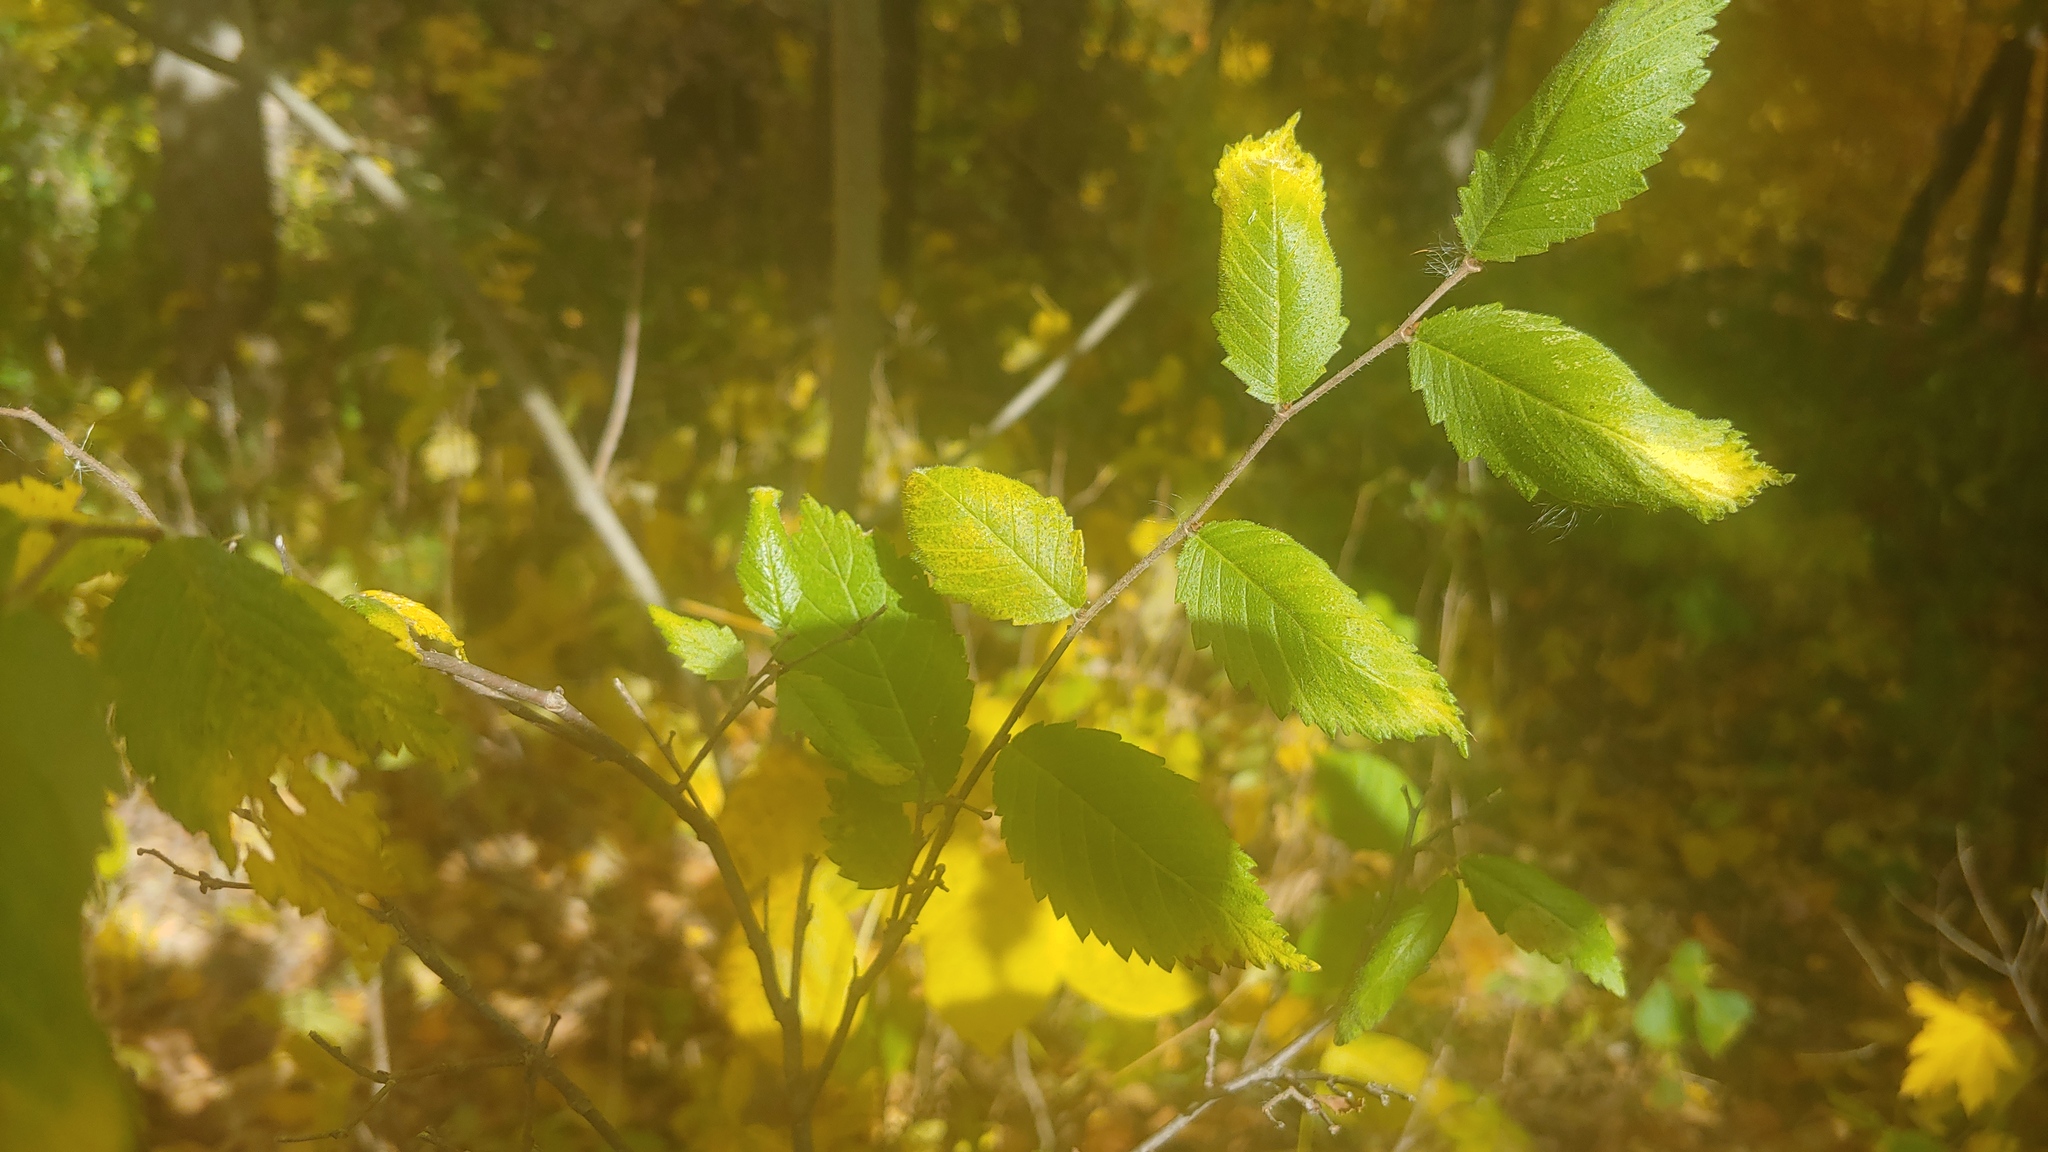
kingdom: Plantae
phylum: Tracheophyta
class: Magnoliopsida
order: Rosales
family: Ulmaceae
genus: Ulmus
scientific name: Ulmus pumila
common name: Siberian elm
